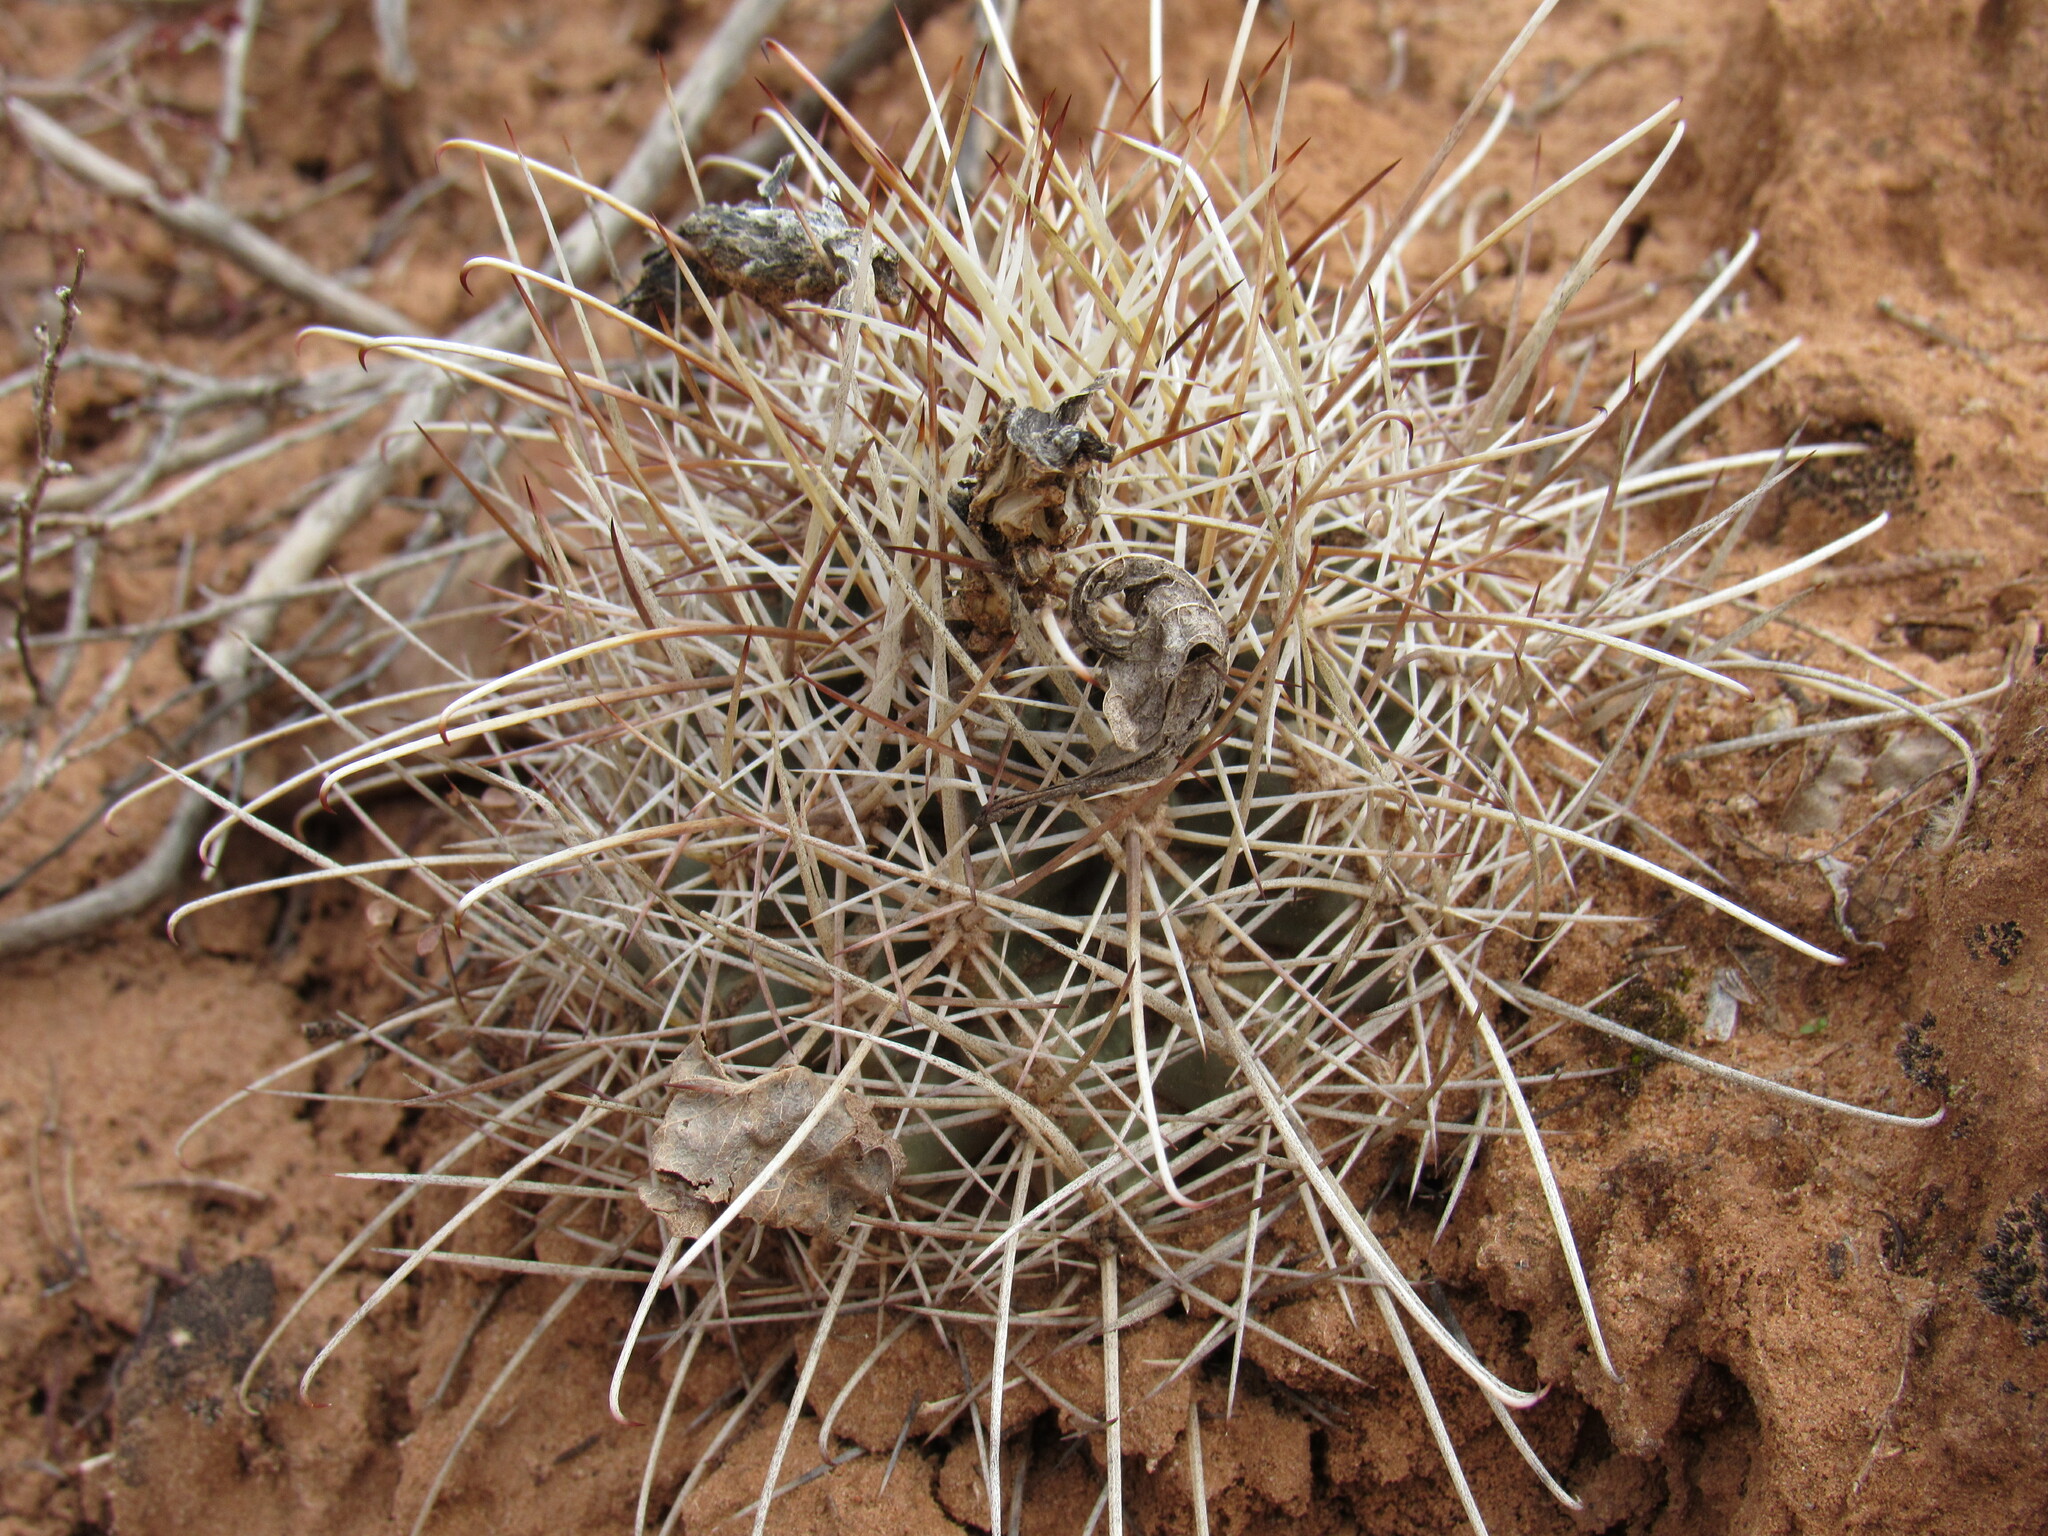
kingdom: Plantae
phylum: Tracheophyta
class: Magnoliopsida
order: Caryophyllales
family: Cactaceae
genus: Sclerocactus
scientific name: Sclerocactus parviflorus
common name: Small-flower fishhook cactus
